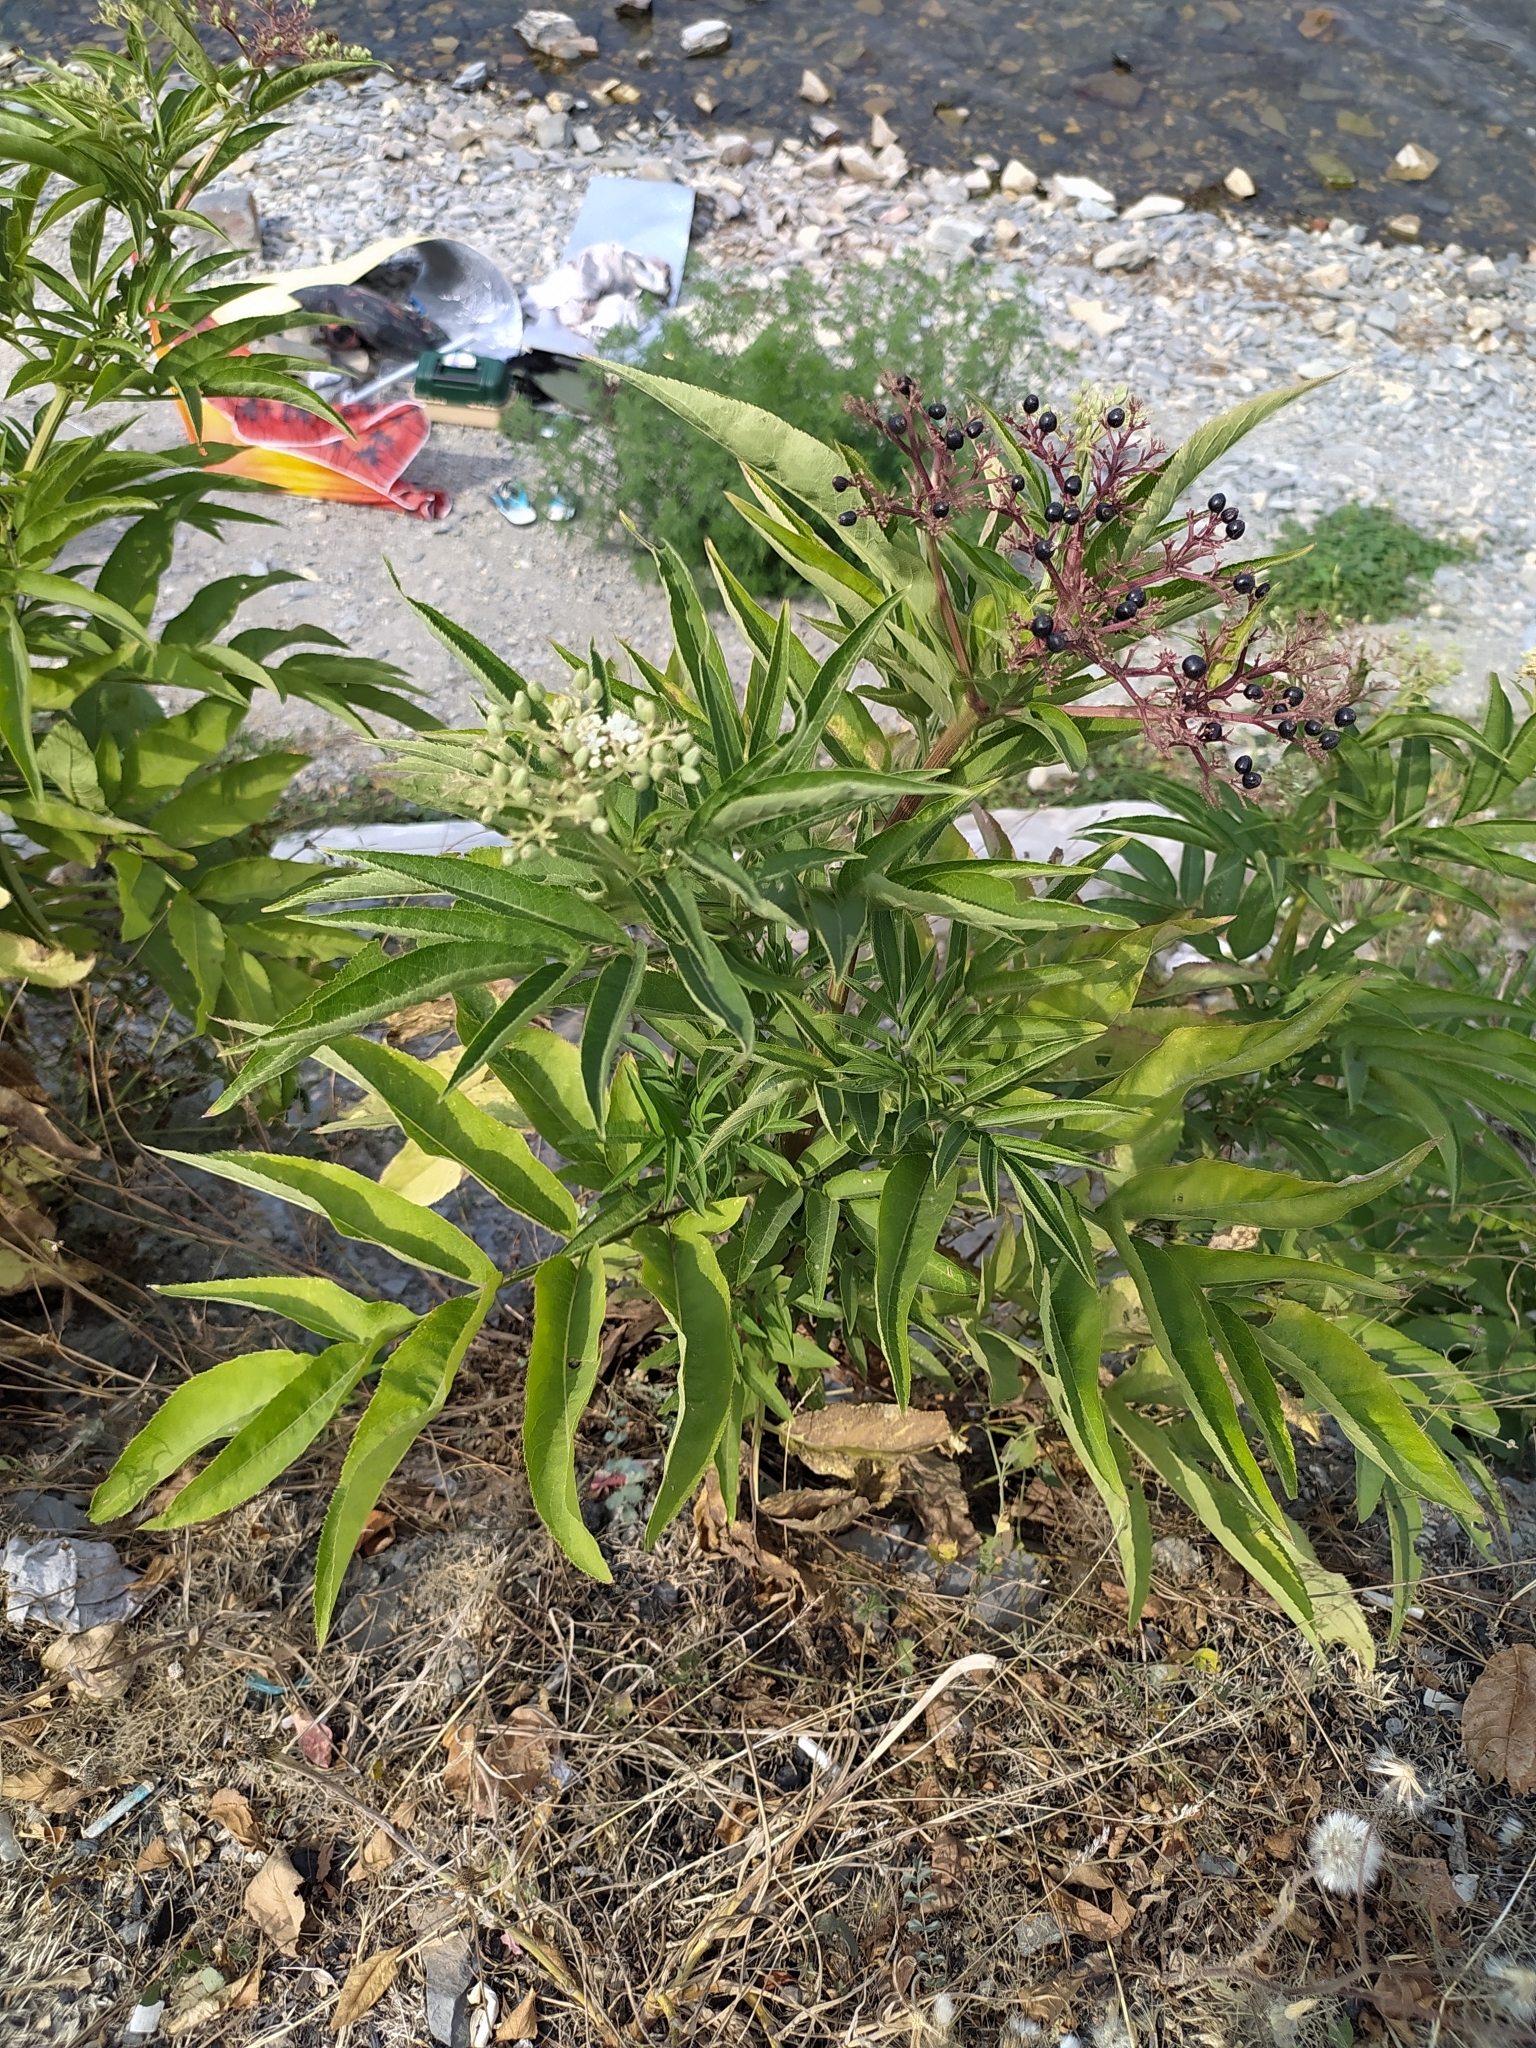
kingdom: Plantae
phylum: Tracheophyta
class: Magnoliopsida
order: Dipsacales
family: Viburnaceae
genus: Sambucus
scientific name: Sambucus ebulus
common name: Dwarf elder
